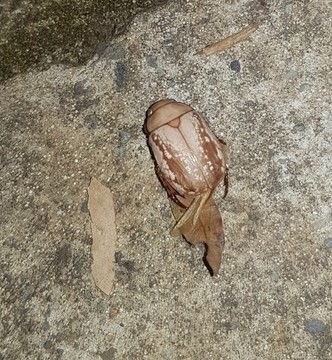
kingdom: Animalia
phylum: Arthropoda
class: Insecta
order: Coleoptera
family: Scarabaeidae
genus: Anoplognathus
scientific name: Anoplognathus concolor
